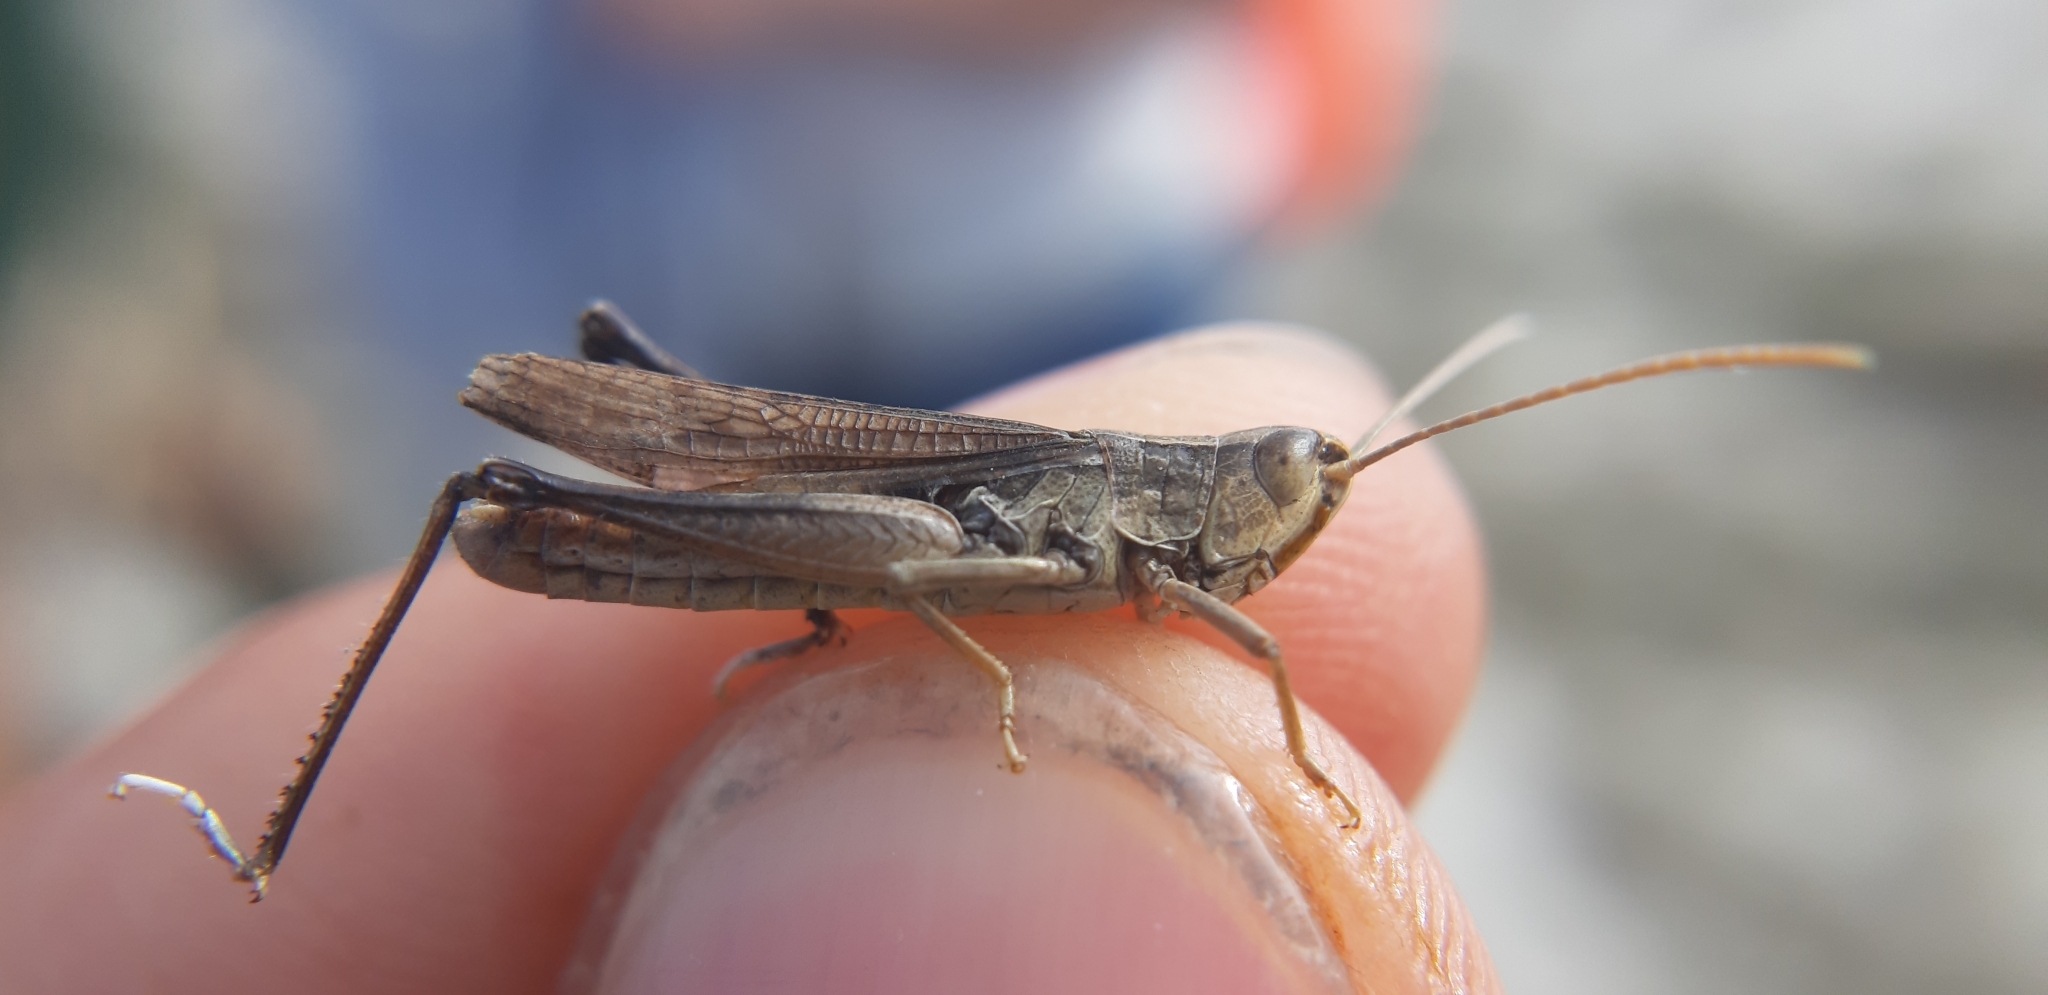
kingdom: Animalia
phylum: Arthropoda
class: Insecta
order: Orthoptera
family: Acrididae
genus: Chorthippus
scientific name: Chorthippus oschei
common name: Carpathian dancing grasshopper
